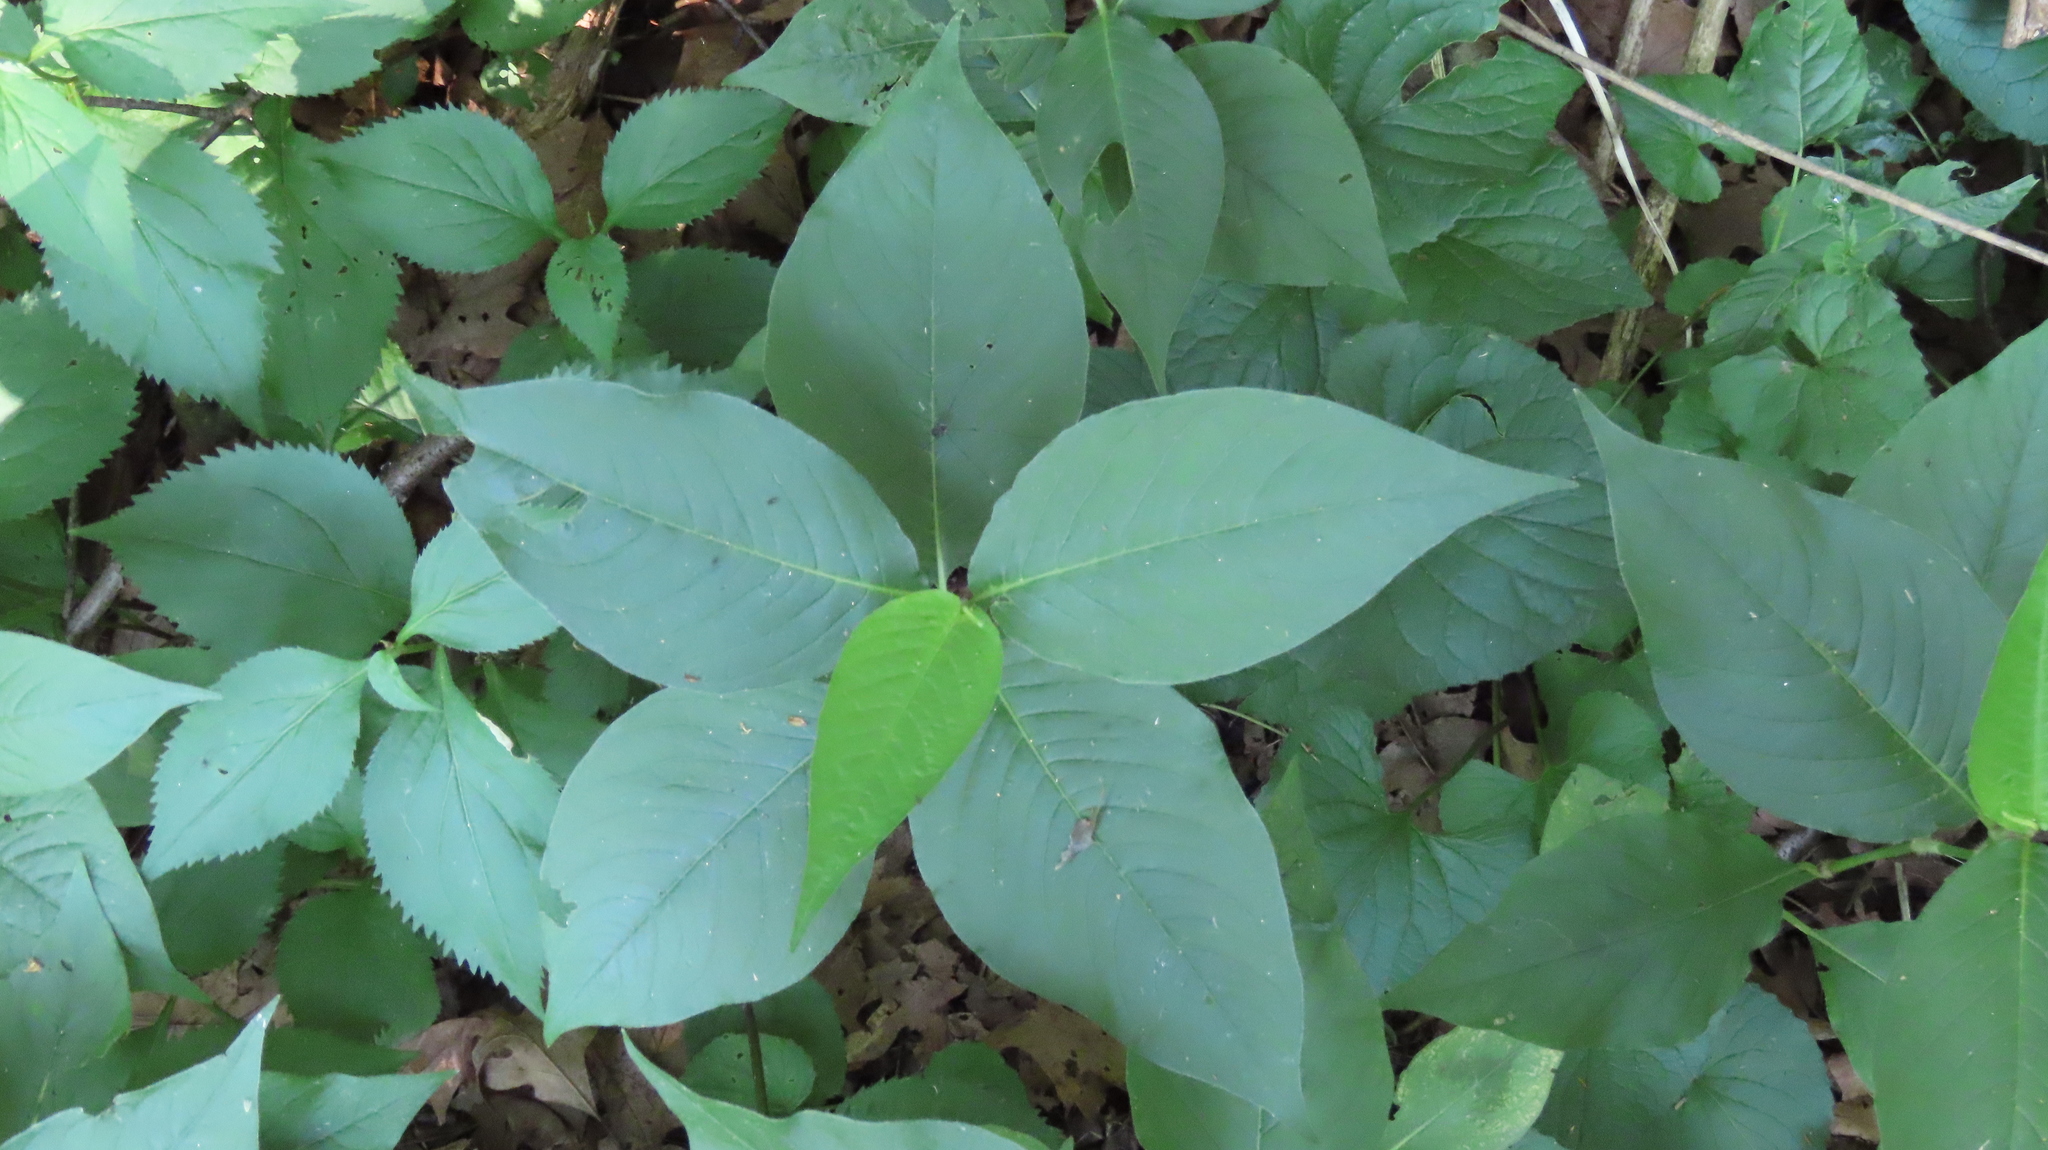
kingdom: Plantae
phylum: Tracheophyta
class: Magnoliopsida
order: Caryophyllales
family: Polygonaceae
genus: Persicaria
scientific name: Persicaria virginiana
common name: Jumpseed
